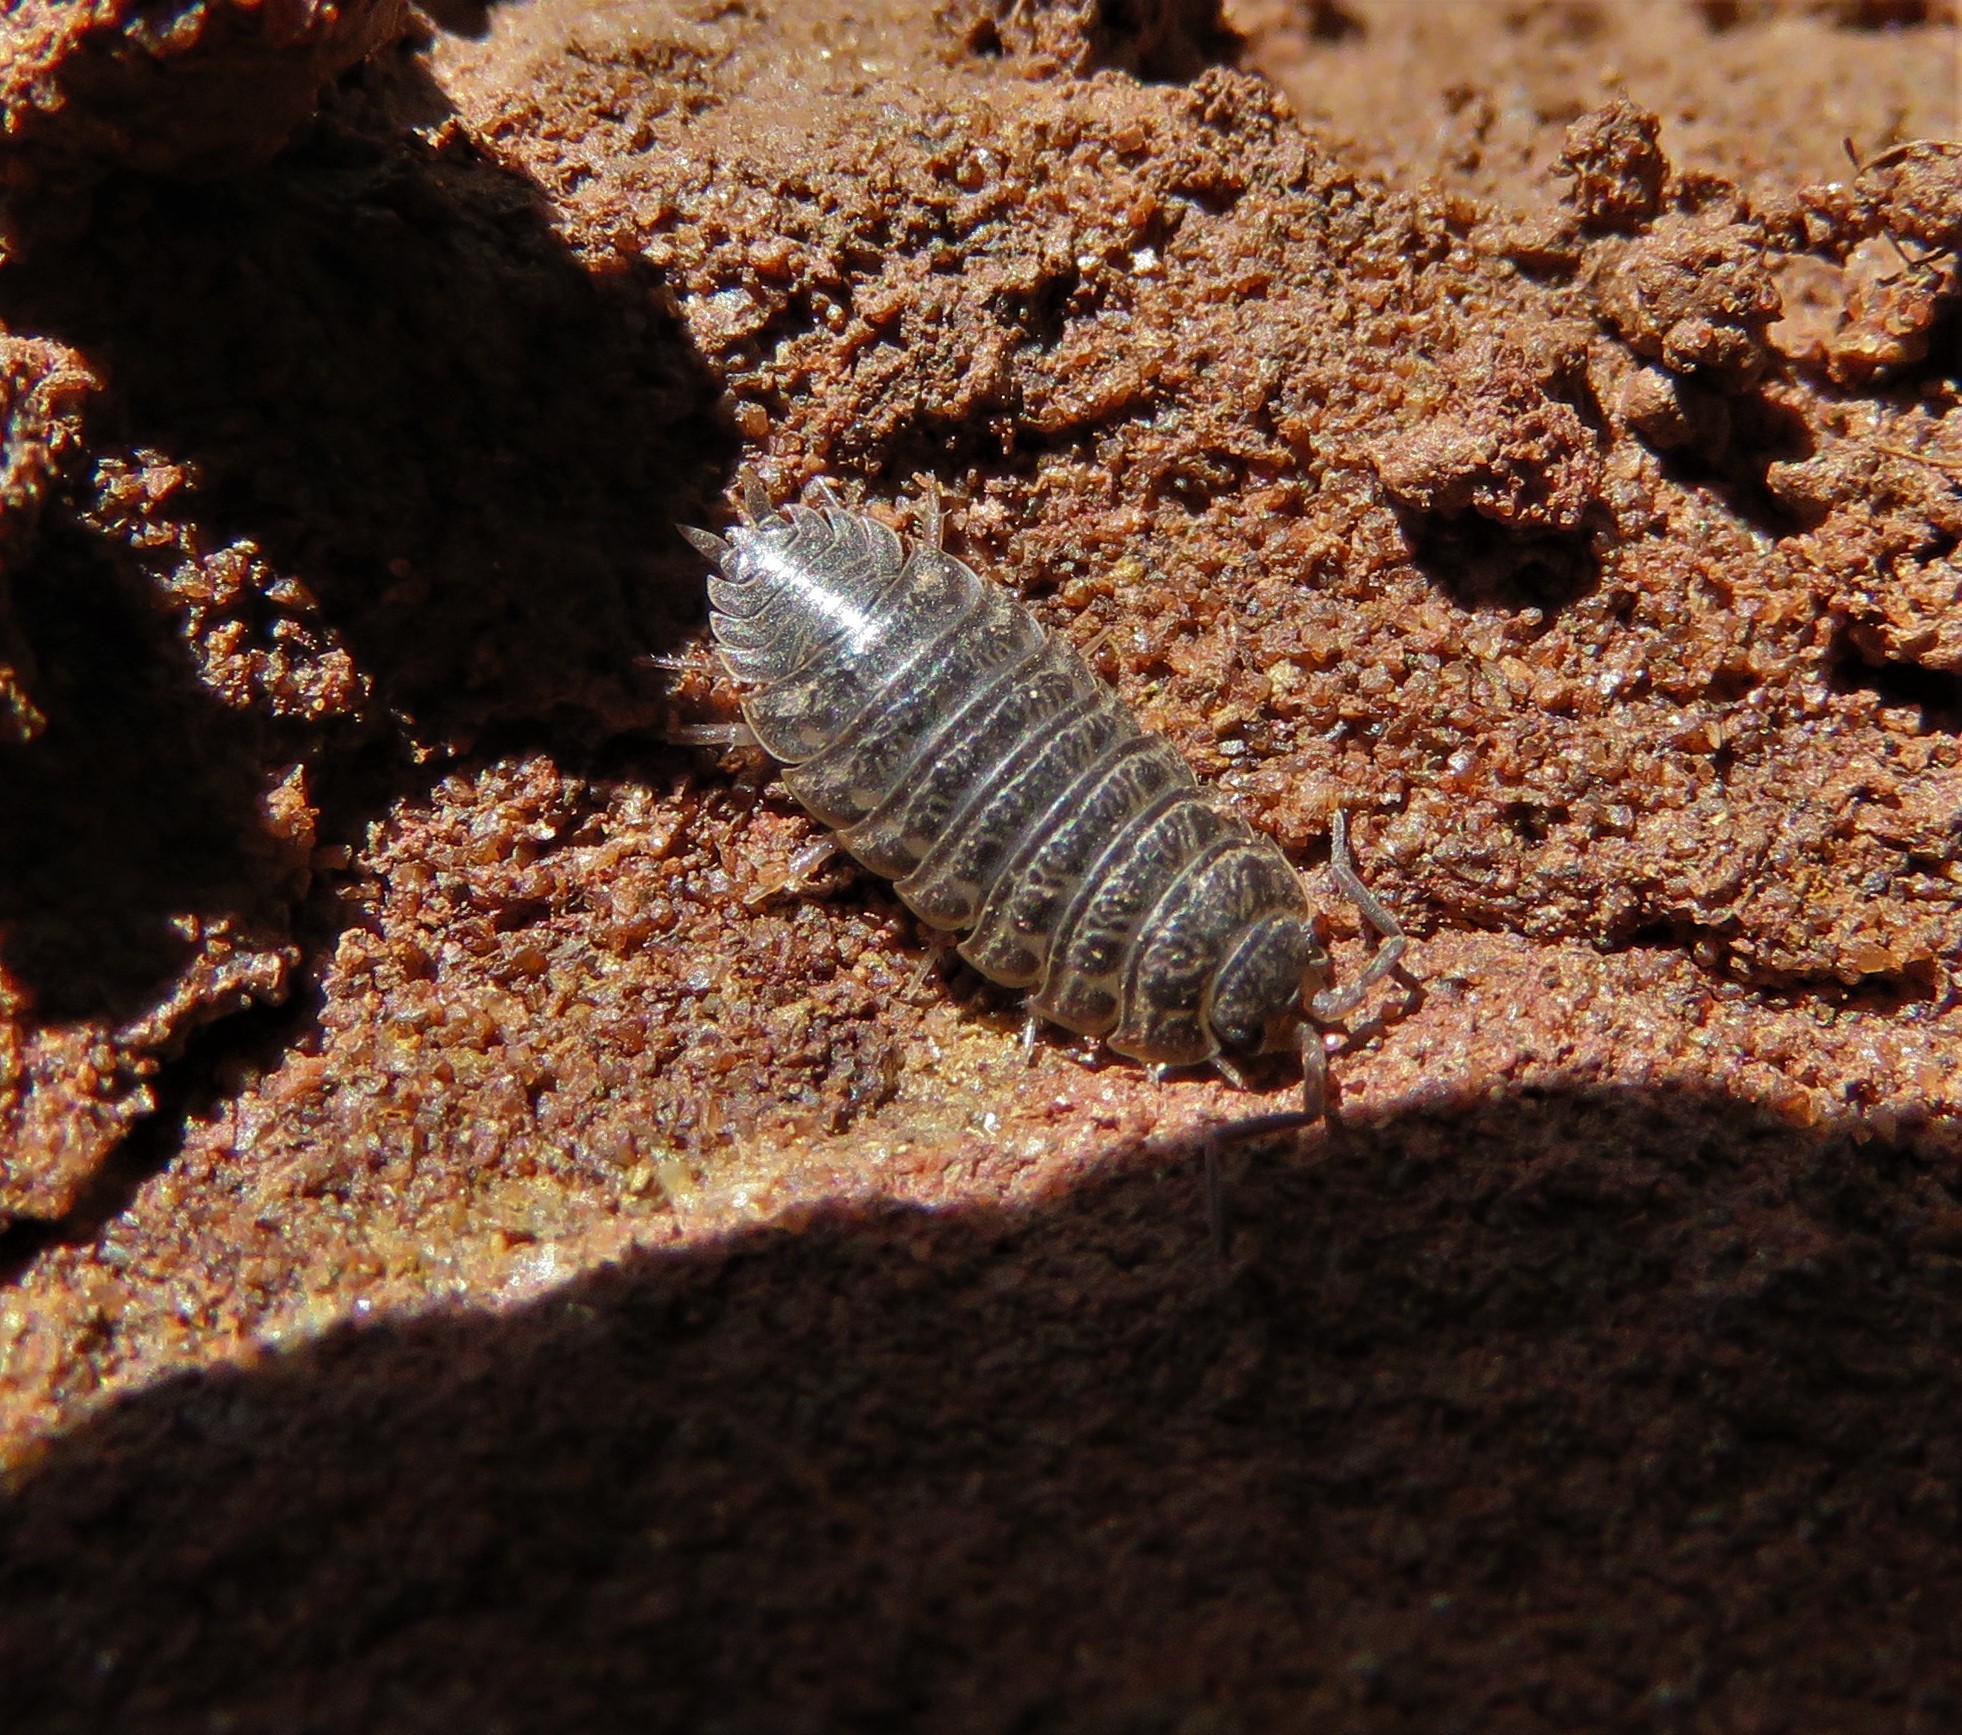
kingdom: Animalia
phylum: Arthropoda
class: Malacostraca
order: Isopoda
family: Trachelipodidae
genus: Trachelipus
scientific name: Trachelipus rathkii
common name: Isopod
